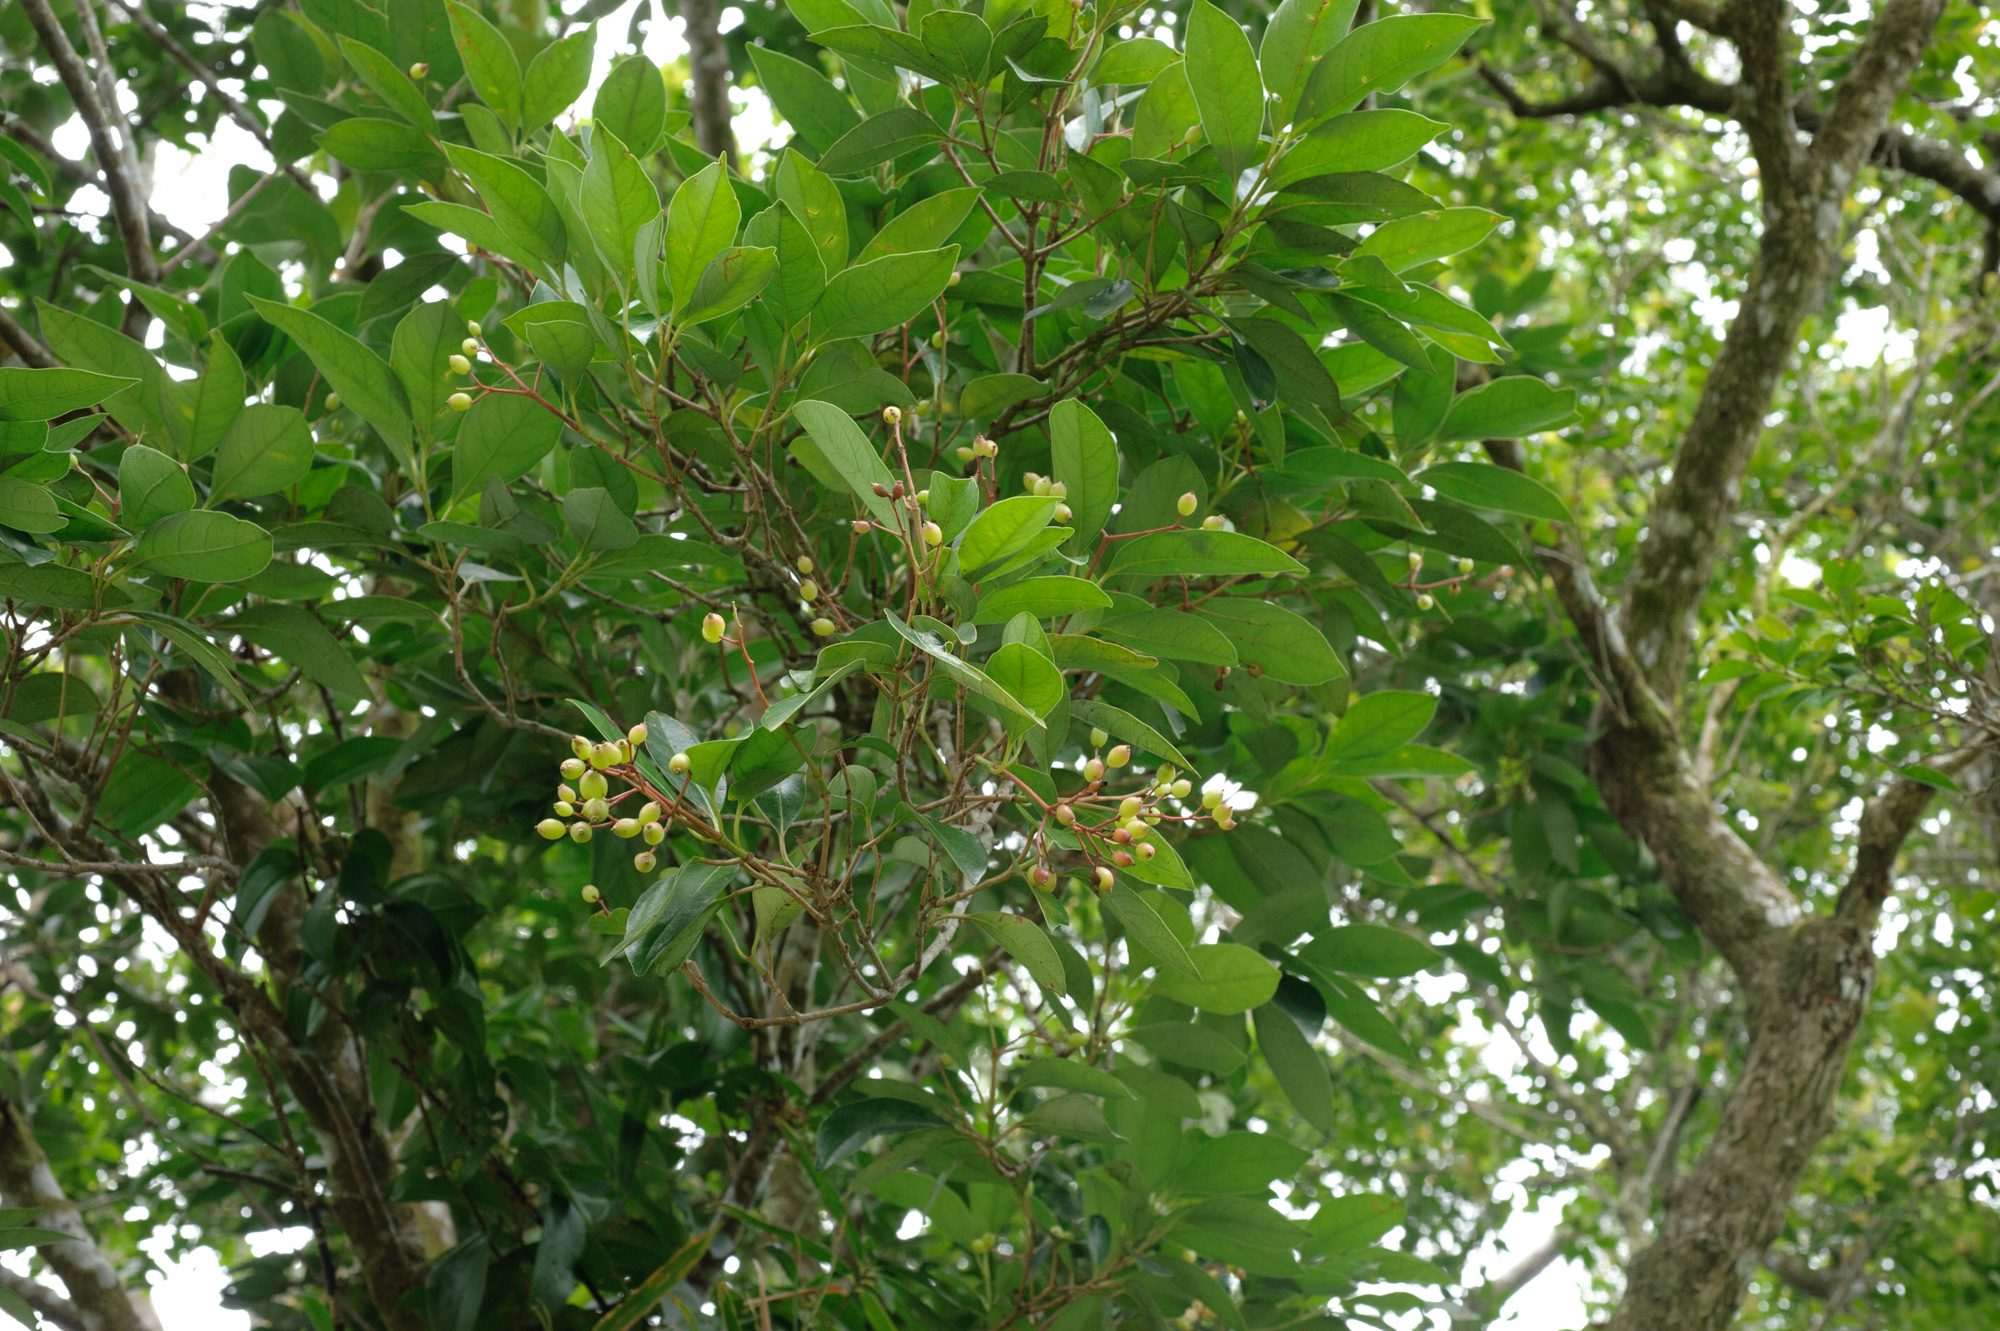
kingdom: Plantae
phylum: Tracheophyta
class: Magnoliopsida
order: Myrtales
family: Myrtaceae
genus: Syzygium
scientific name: Syzygium kusukusense
